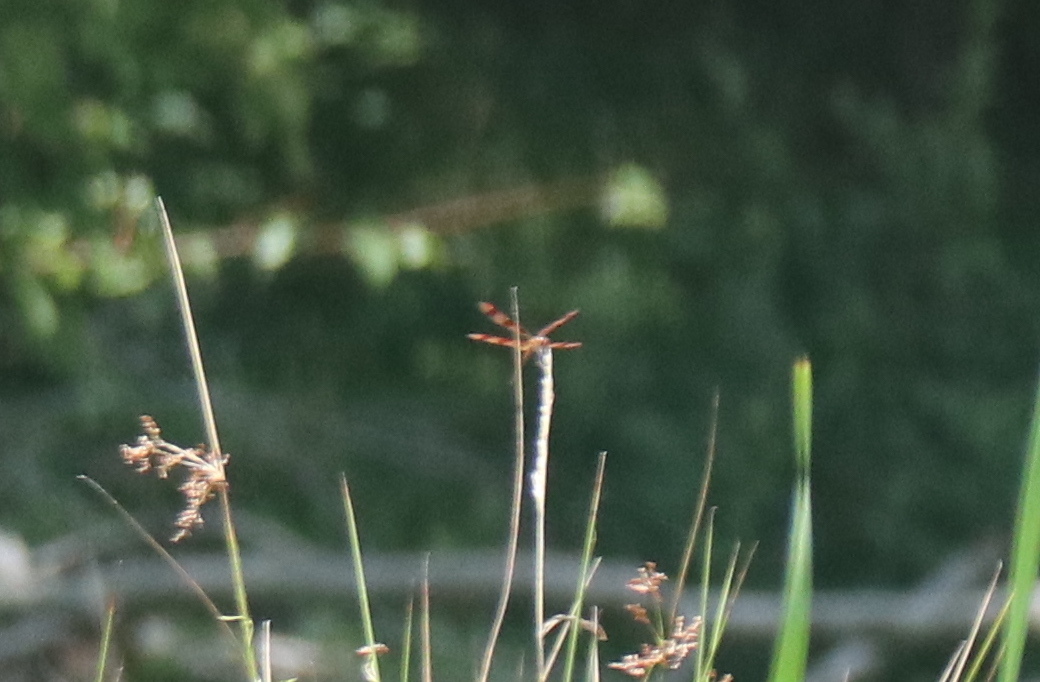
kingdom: Animalia
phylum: Arthropoda
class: Insecta
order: Odonata
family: Libellulidae
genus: Celithemis
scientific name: Celithemis eponina
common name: Halloween pennant
